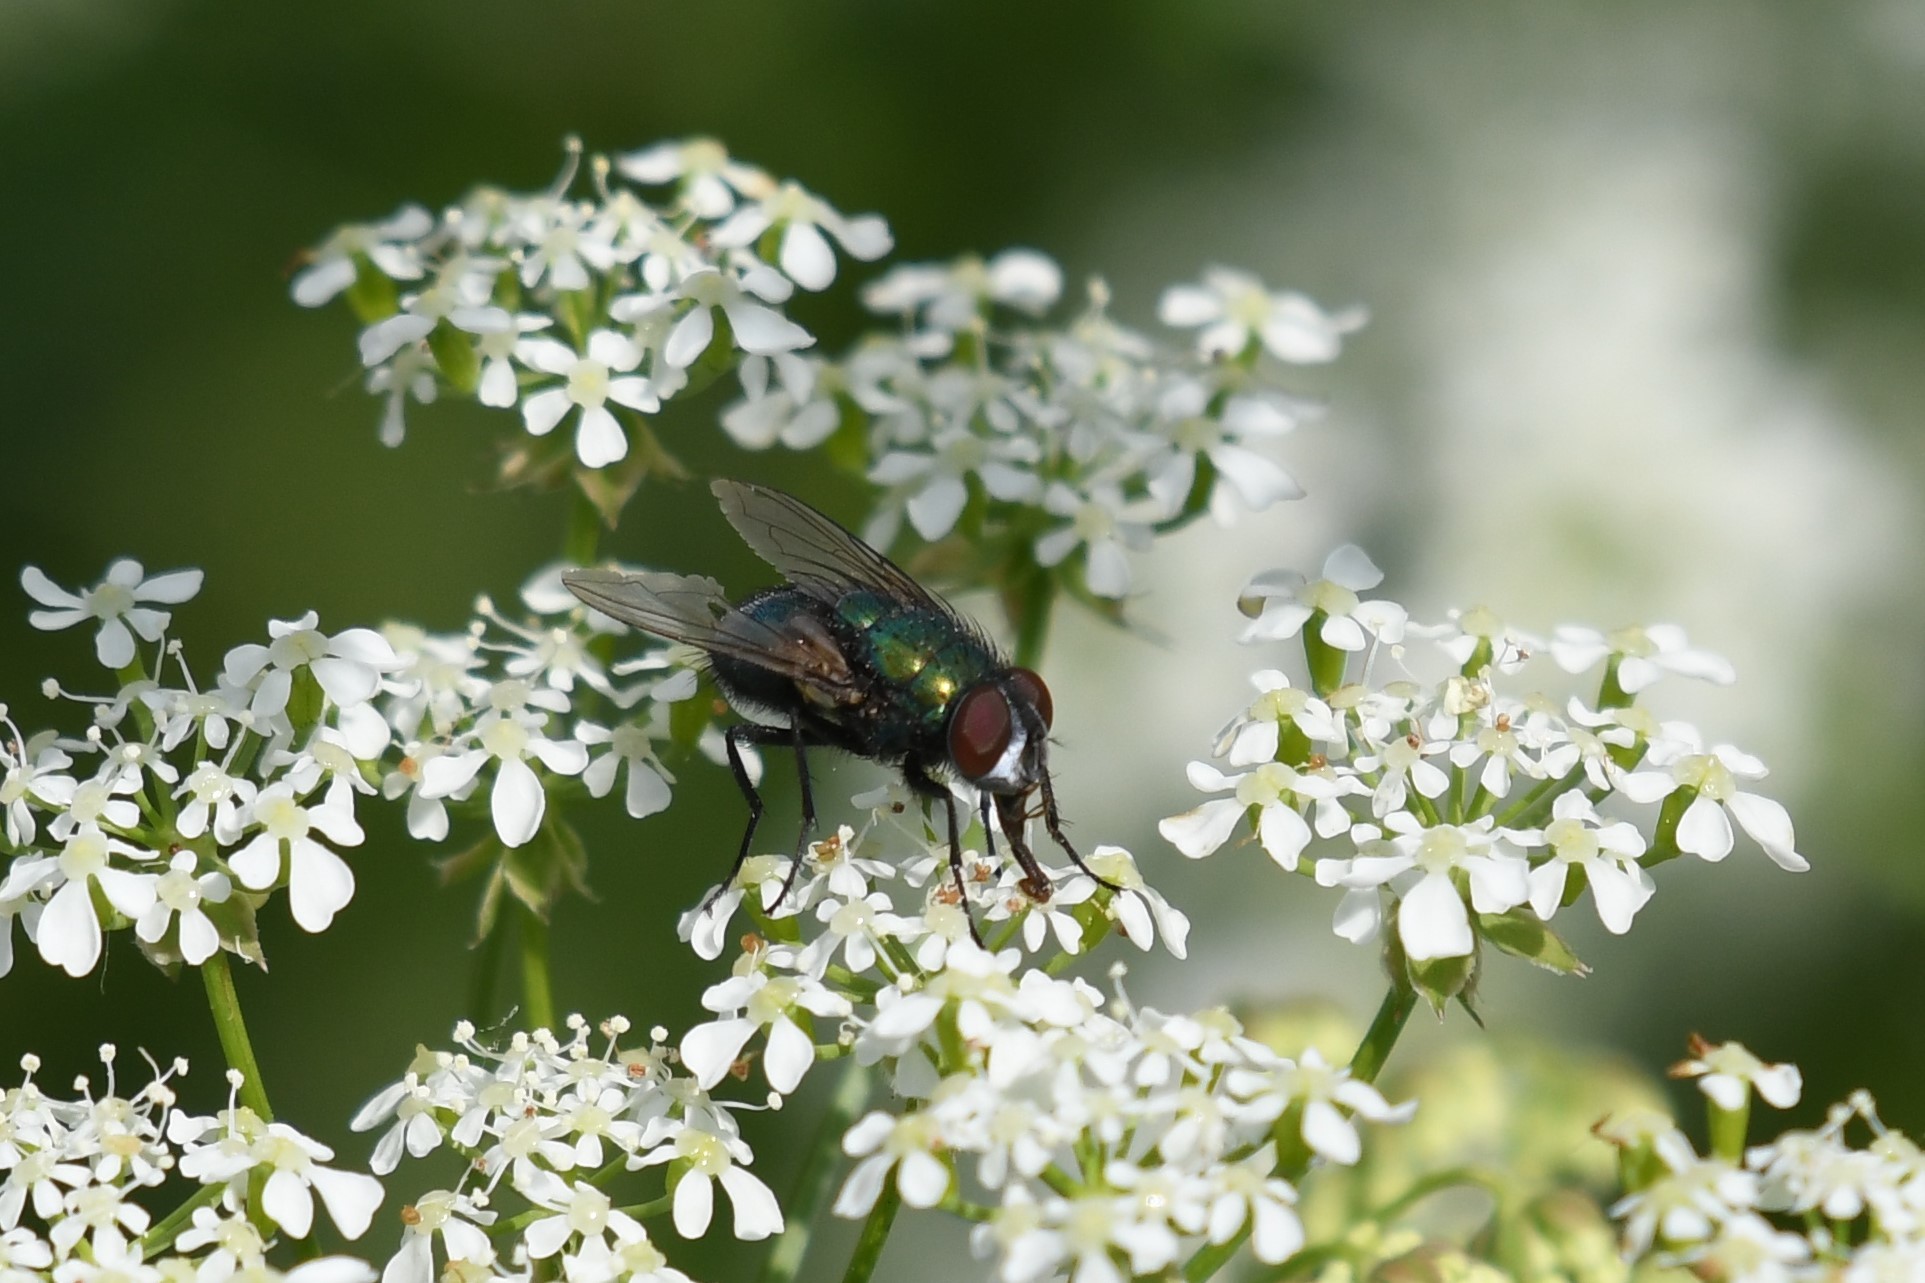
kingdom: Animalia
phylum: Arthropoda
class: Insecta
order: Diptera
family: Calliphoridae
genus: Lucilia
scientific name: Lucilia sericata
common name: Blow fly
